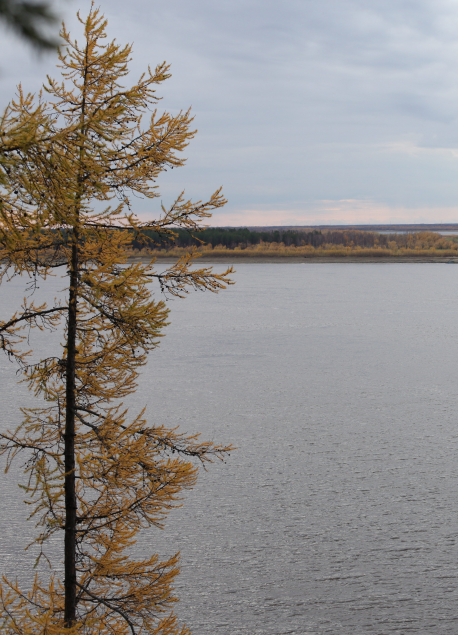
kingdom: Plantae
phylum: Tracheophyta
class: Pinopsida
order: Pinales
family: Pinaceae
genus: Larix
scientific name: Larix sibirica
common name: Siberian larch
